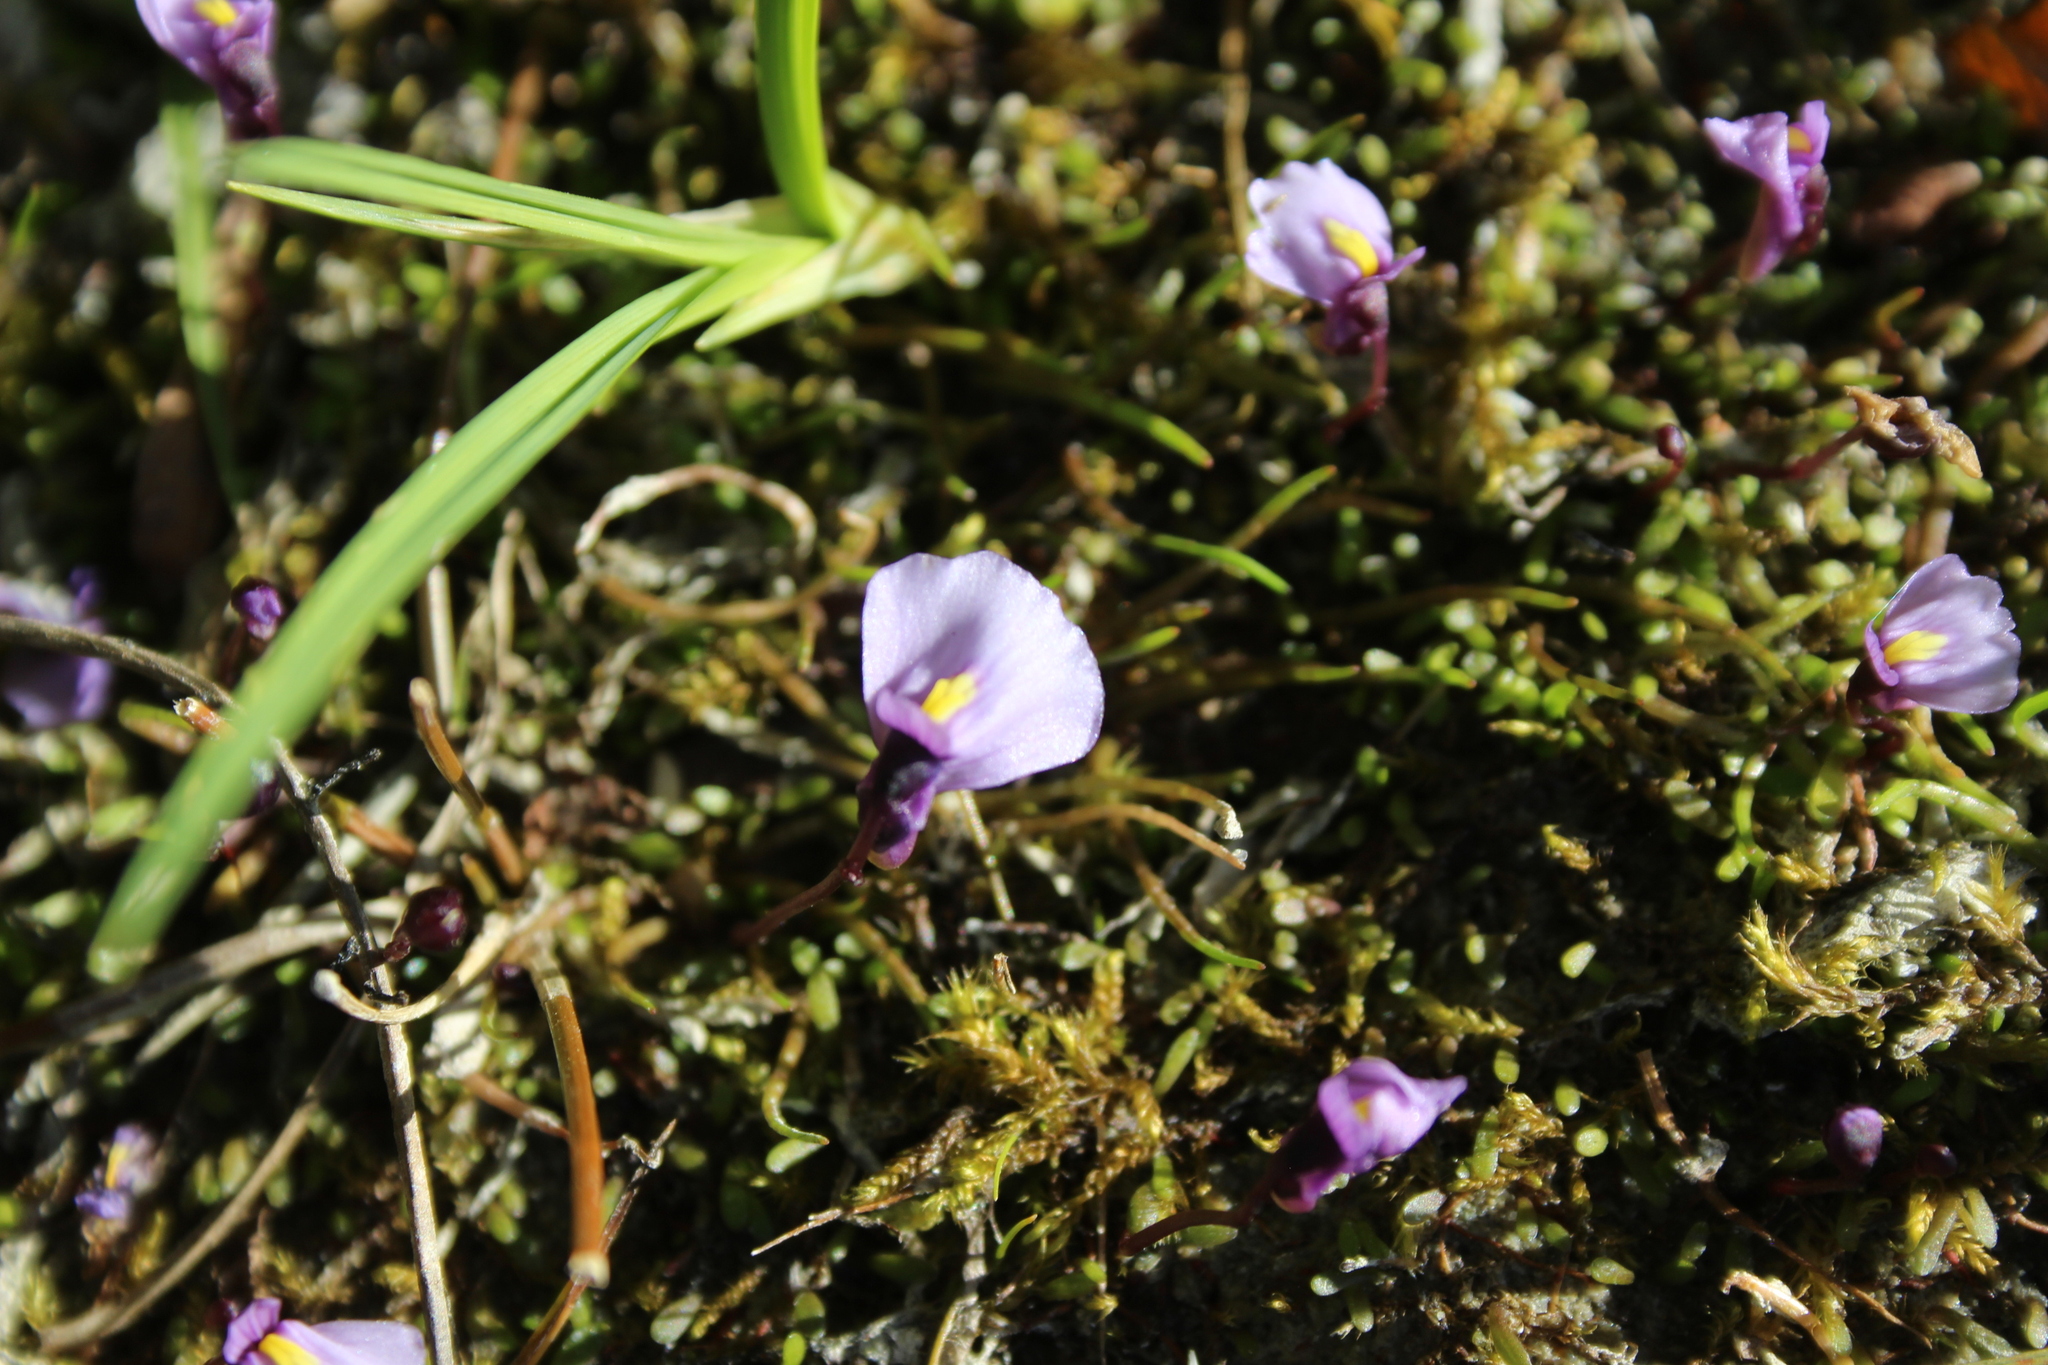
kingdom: Plantae
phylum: Tracheophyta
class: Magnoliopsida
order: Lamiales
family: Lentibulariaceae
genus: Utricularia
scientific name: Utricularia dichotoma
